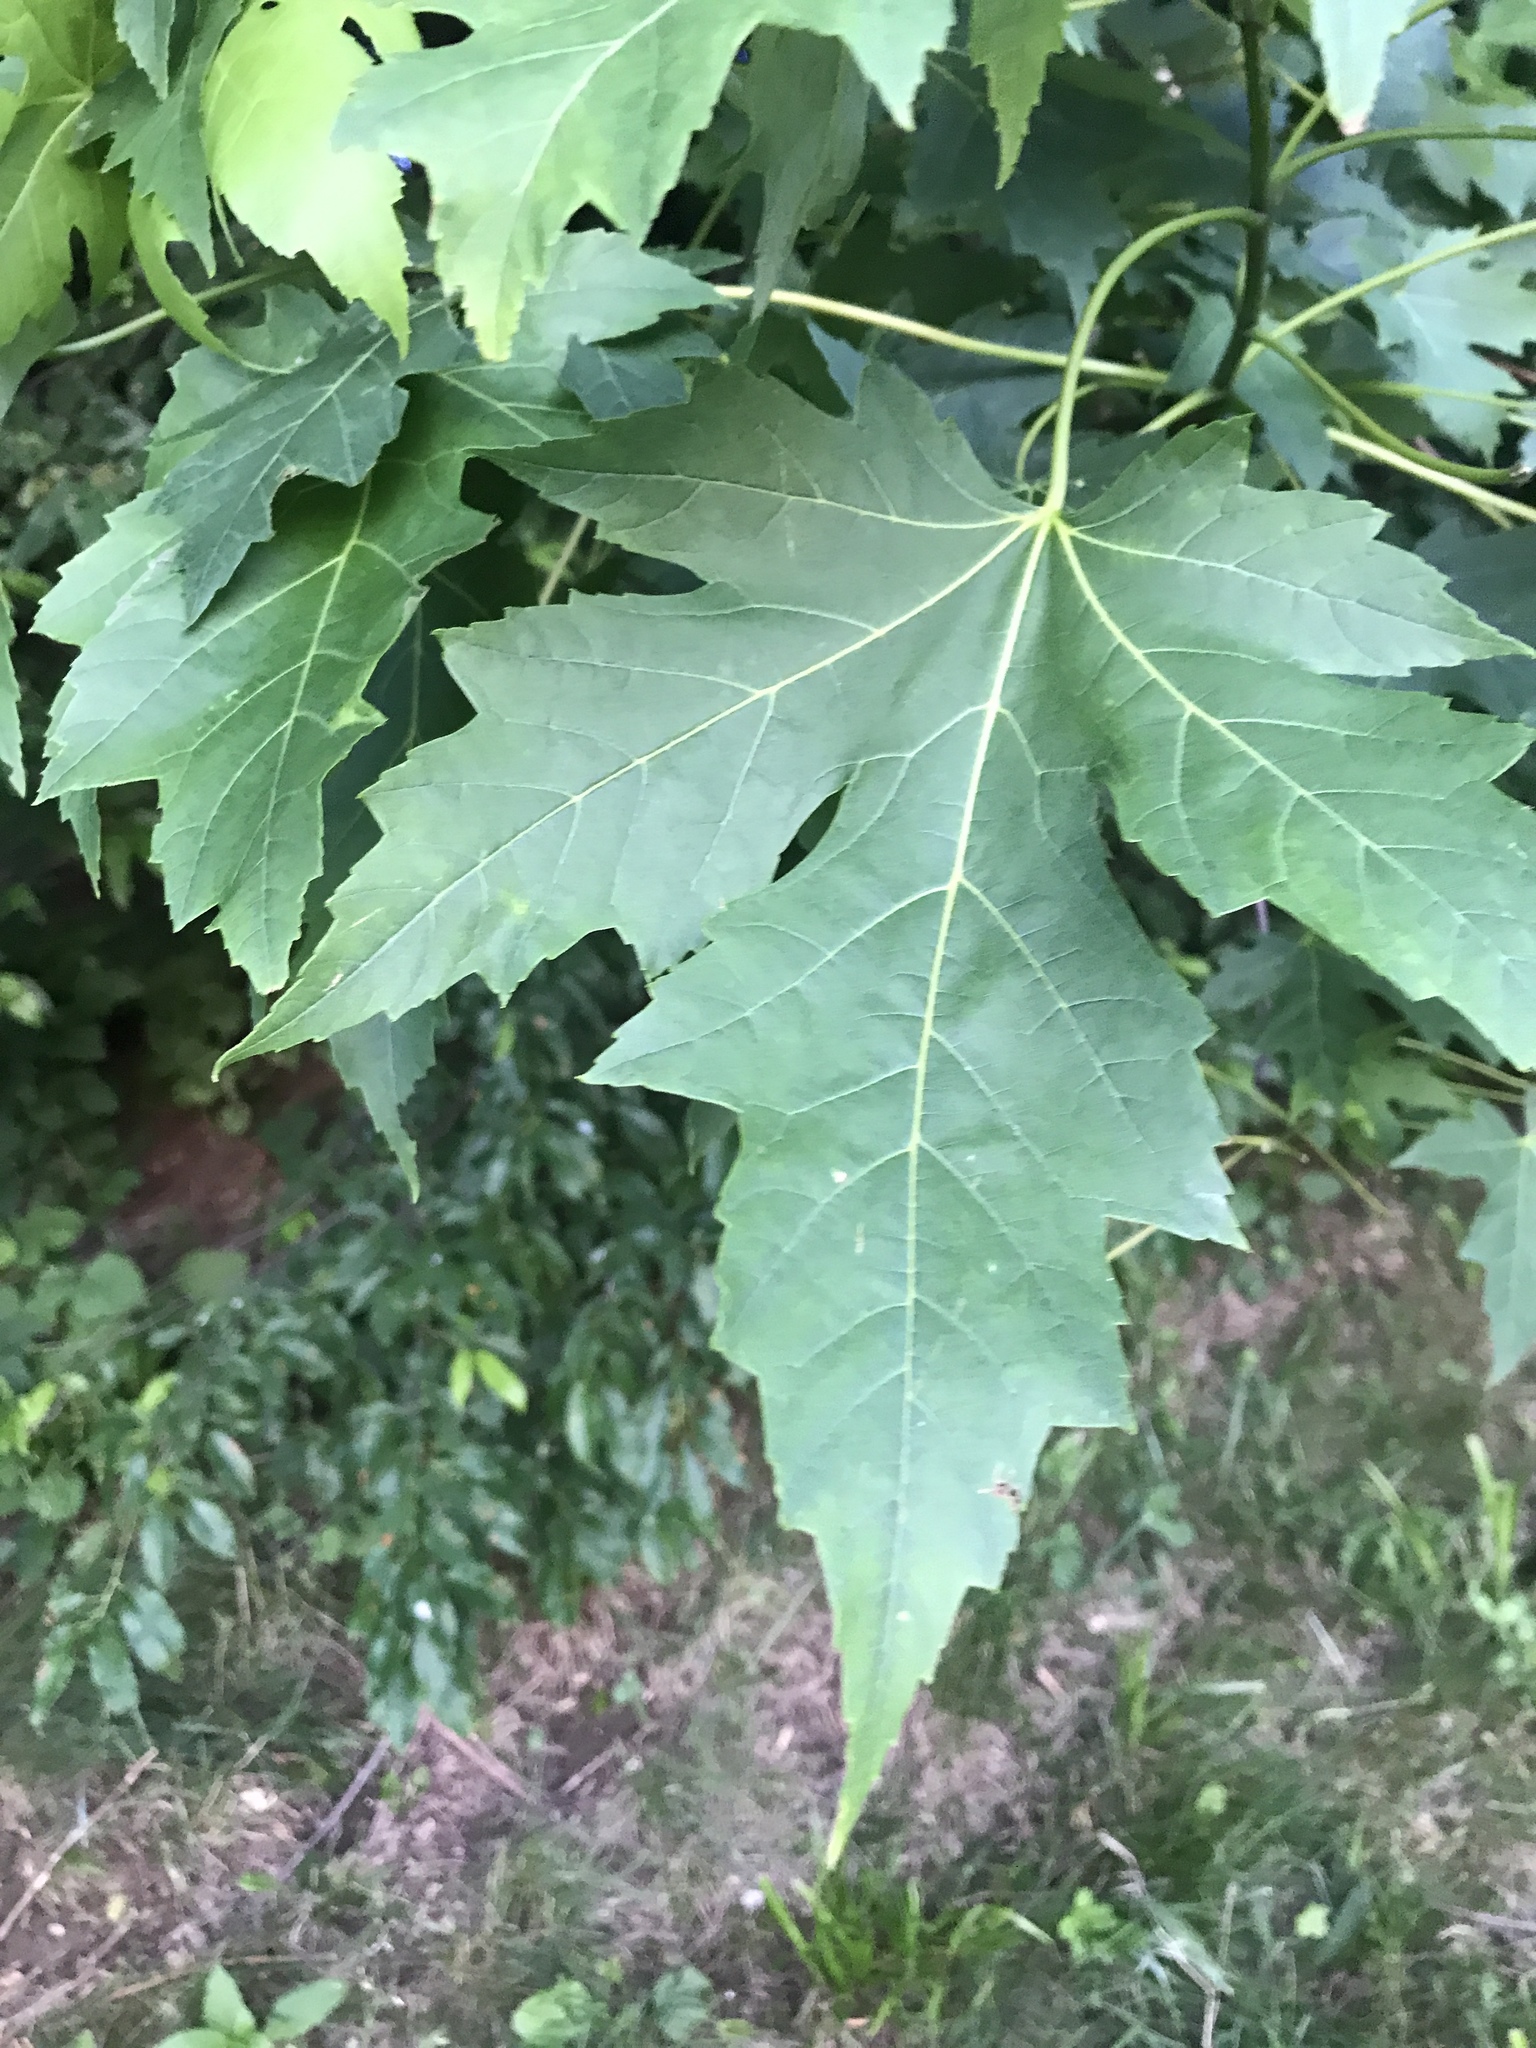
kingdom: Plantae
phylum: Tracheophyta
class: Magnoliopsida
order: Sapindales
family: Sapindaceae
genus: Acer
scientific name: Acer saccharinum
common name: Silver maple
